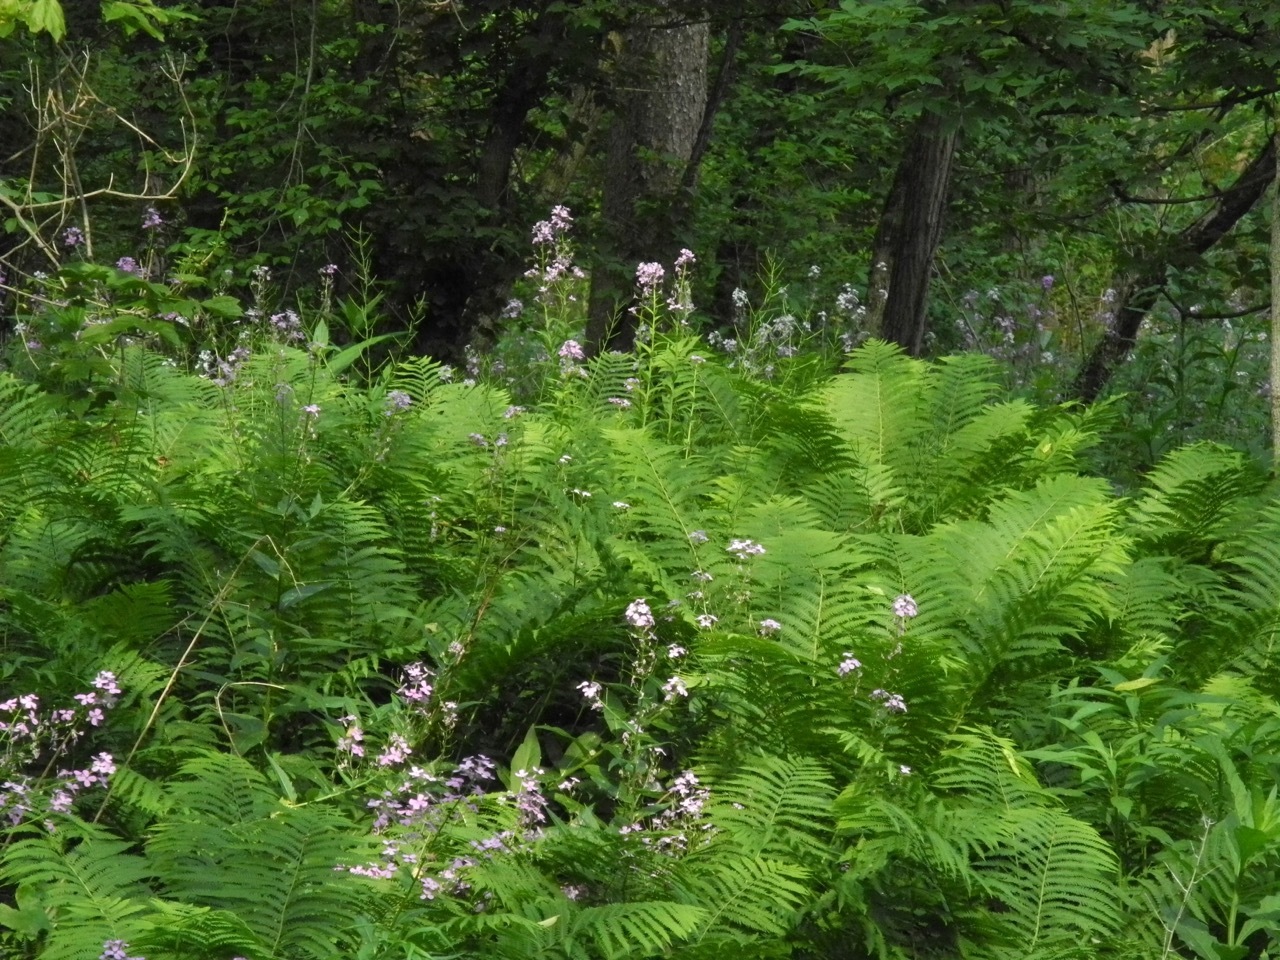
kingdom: Plantae
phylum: Tracheophyta
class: Polypodiopsida
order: Polypodiales
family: Onocleaceae
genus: Matteuccia
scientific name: Matteuccia struthiopteris
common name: Ostrich fern
